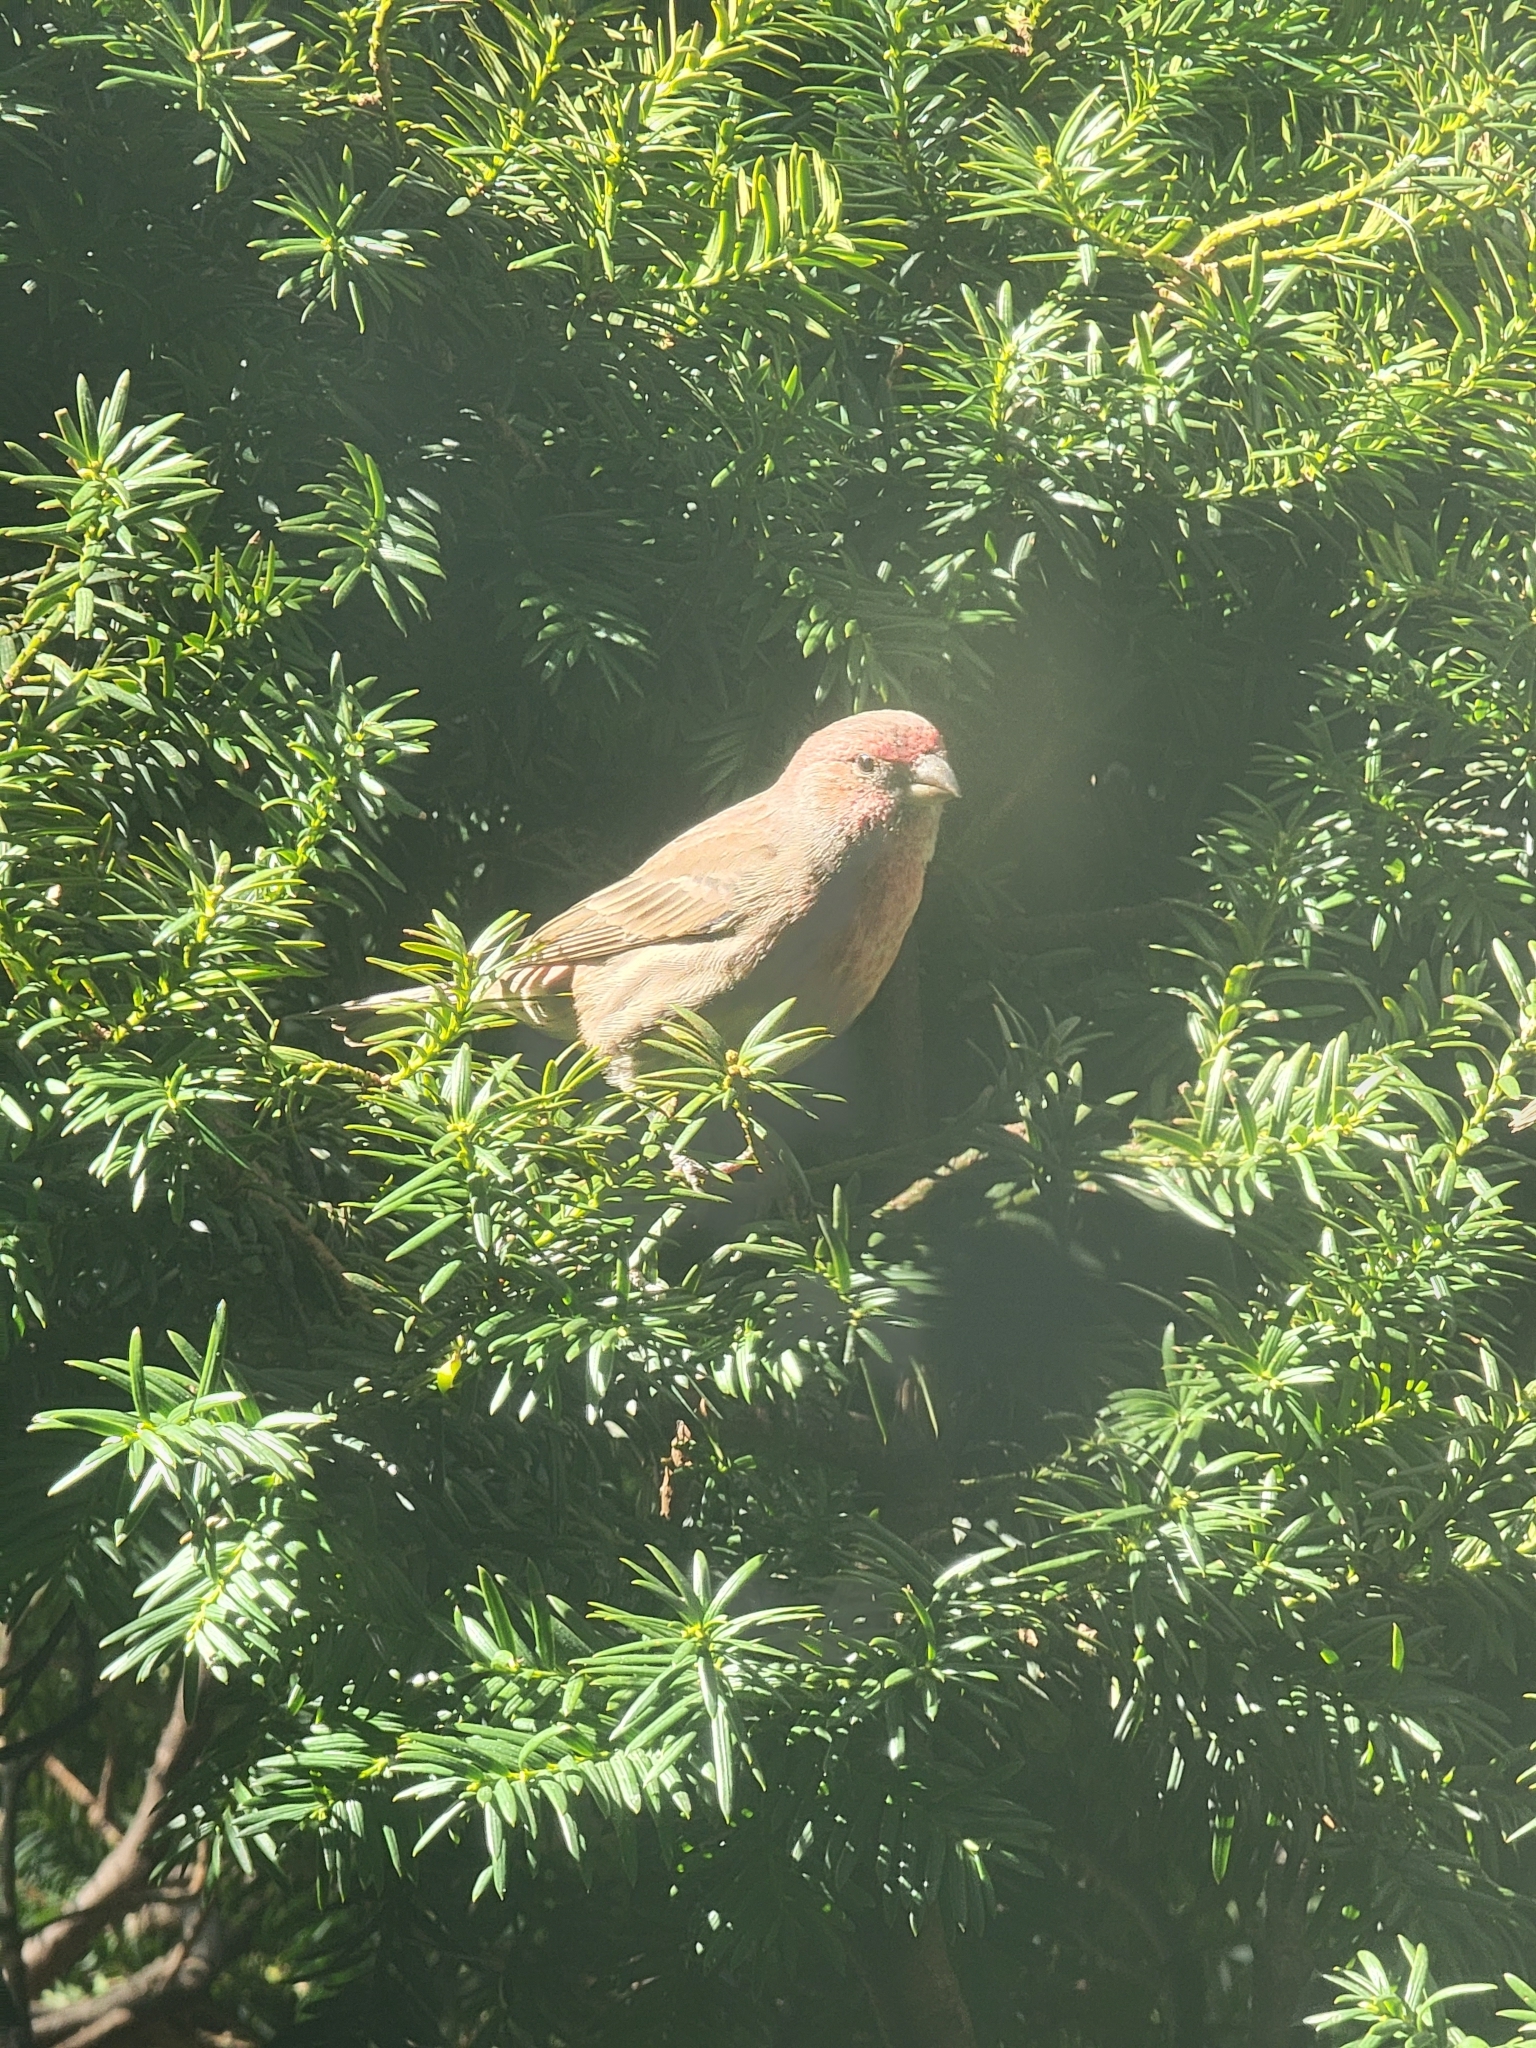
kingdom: Animalia
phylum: Chordata
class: Aves
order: Passeriformes
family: Fringillidae
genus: Haemorhous
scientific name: Haemorhous mexicanus
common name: House finch
